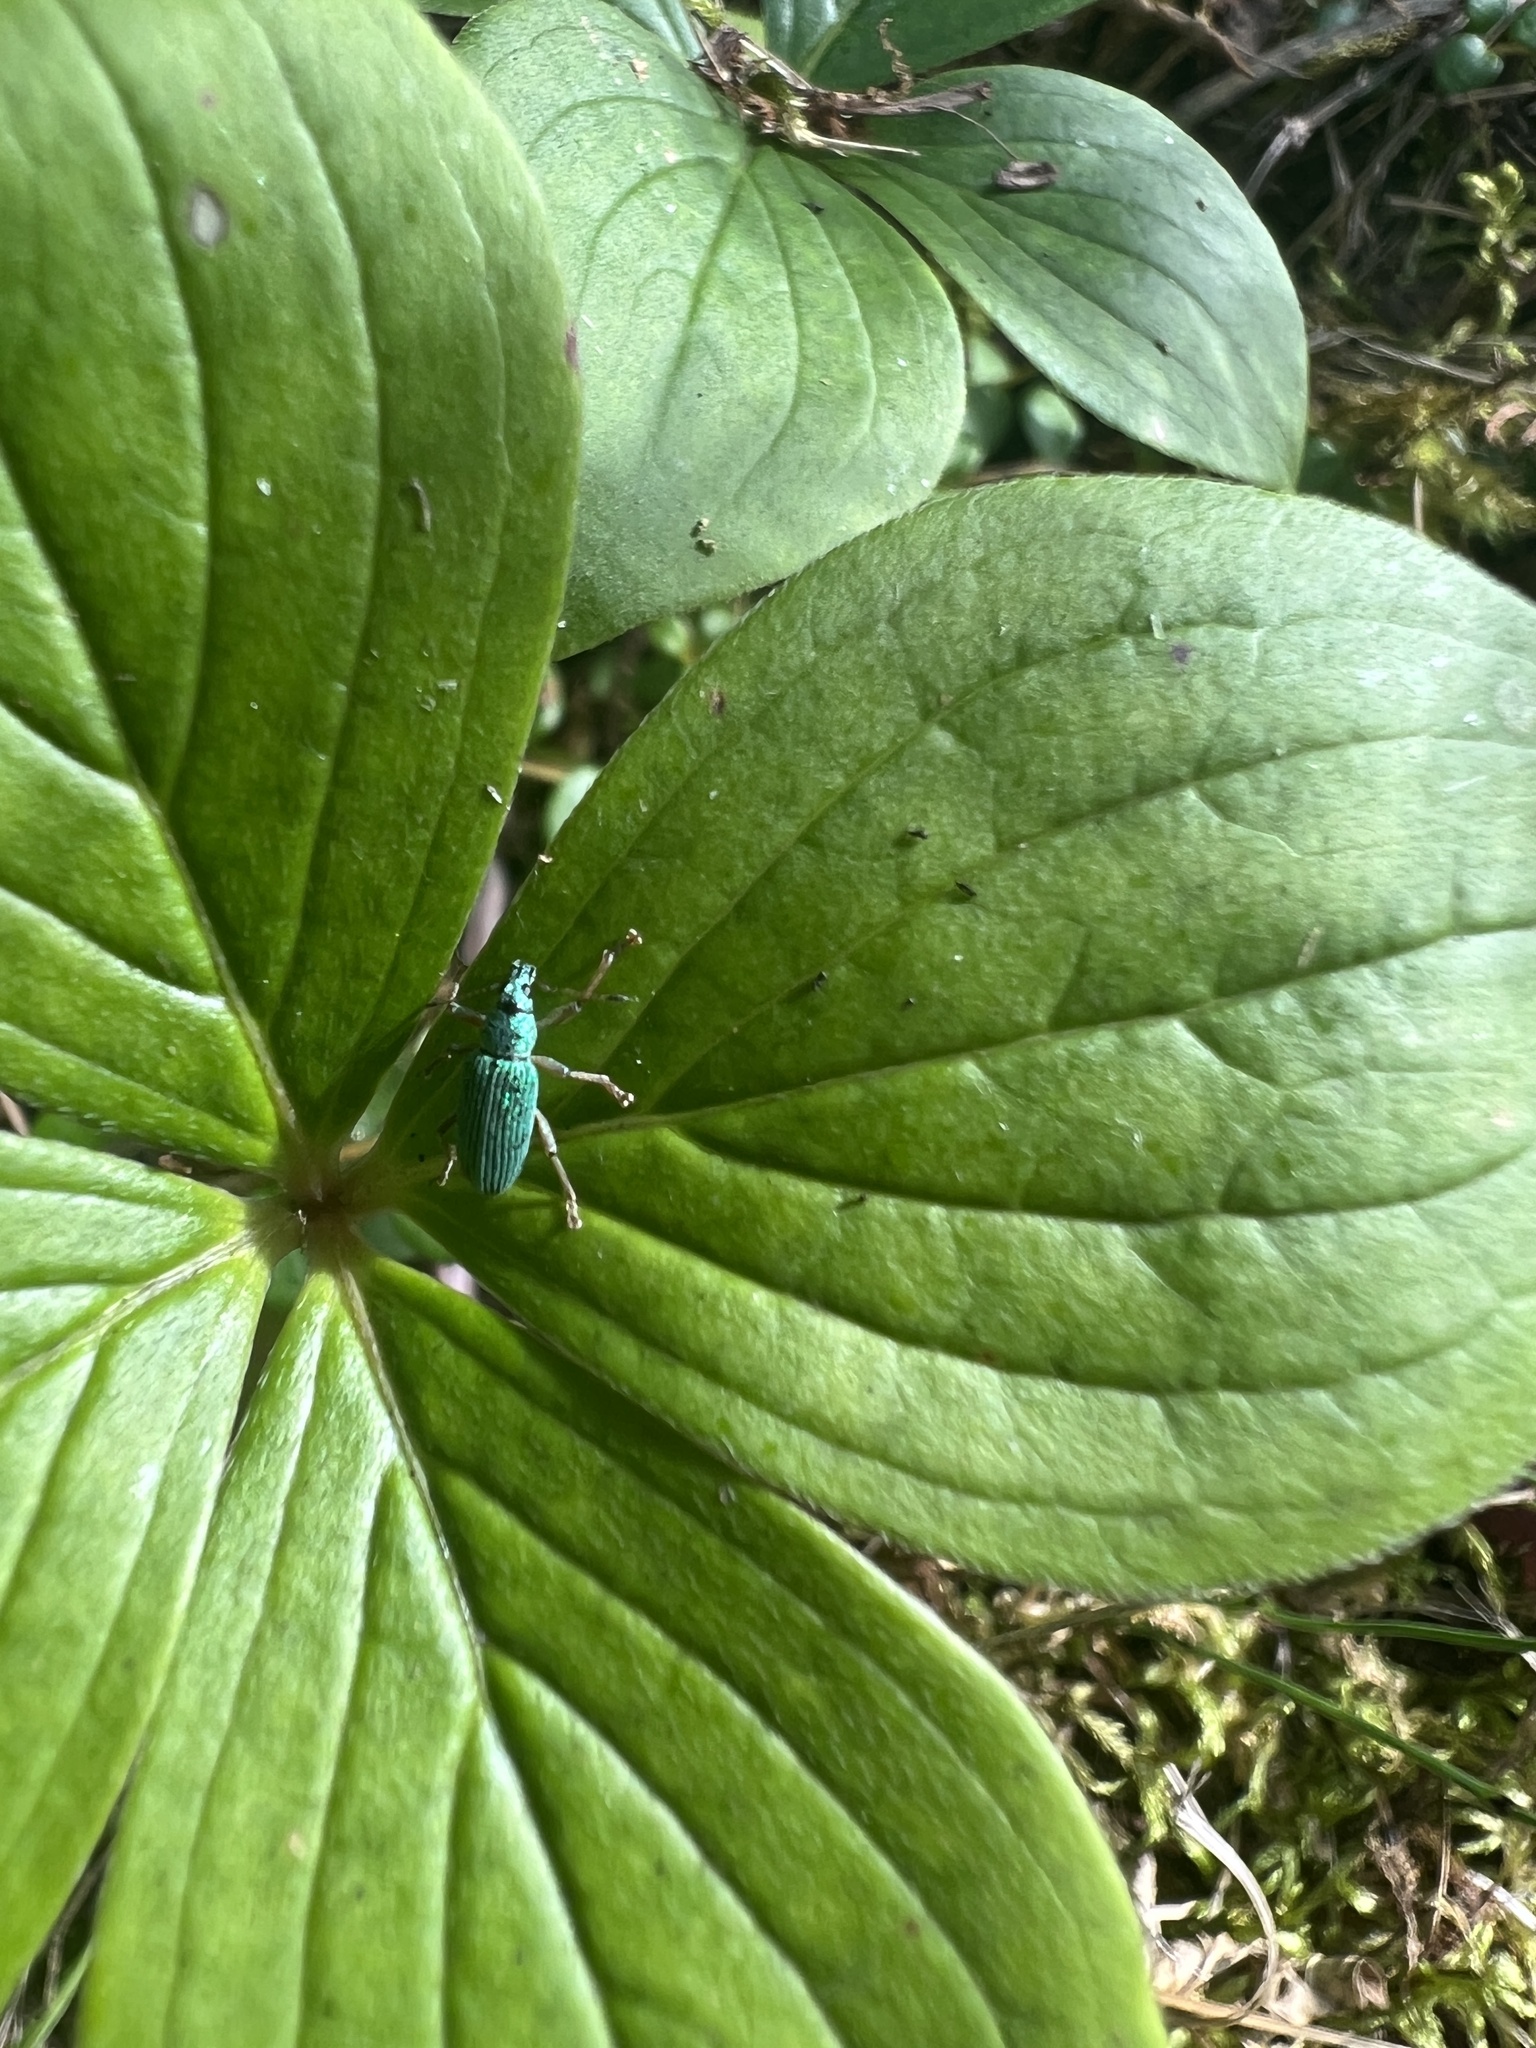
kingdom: Animalia
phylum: Arthropoda
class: Insecta
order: Coleoptera
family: Curculionidae
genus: Polydrusus
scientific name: Polydrusus formosus
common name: Weevil
